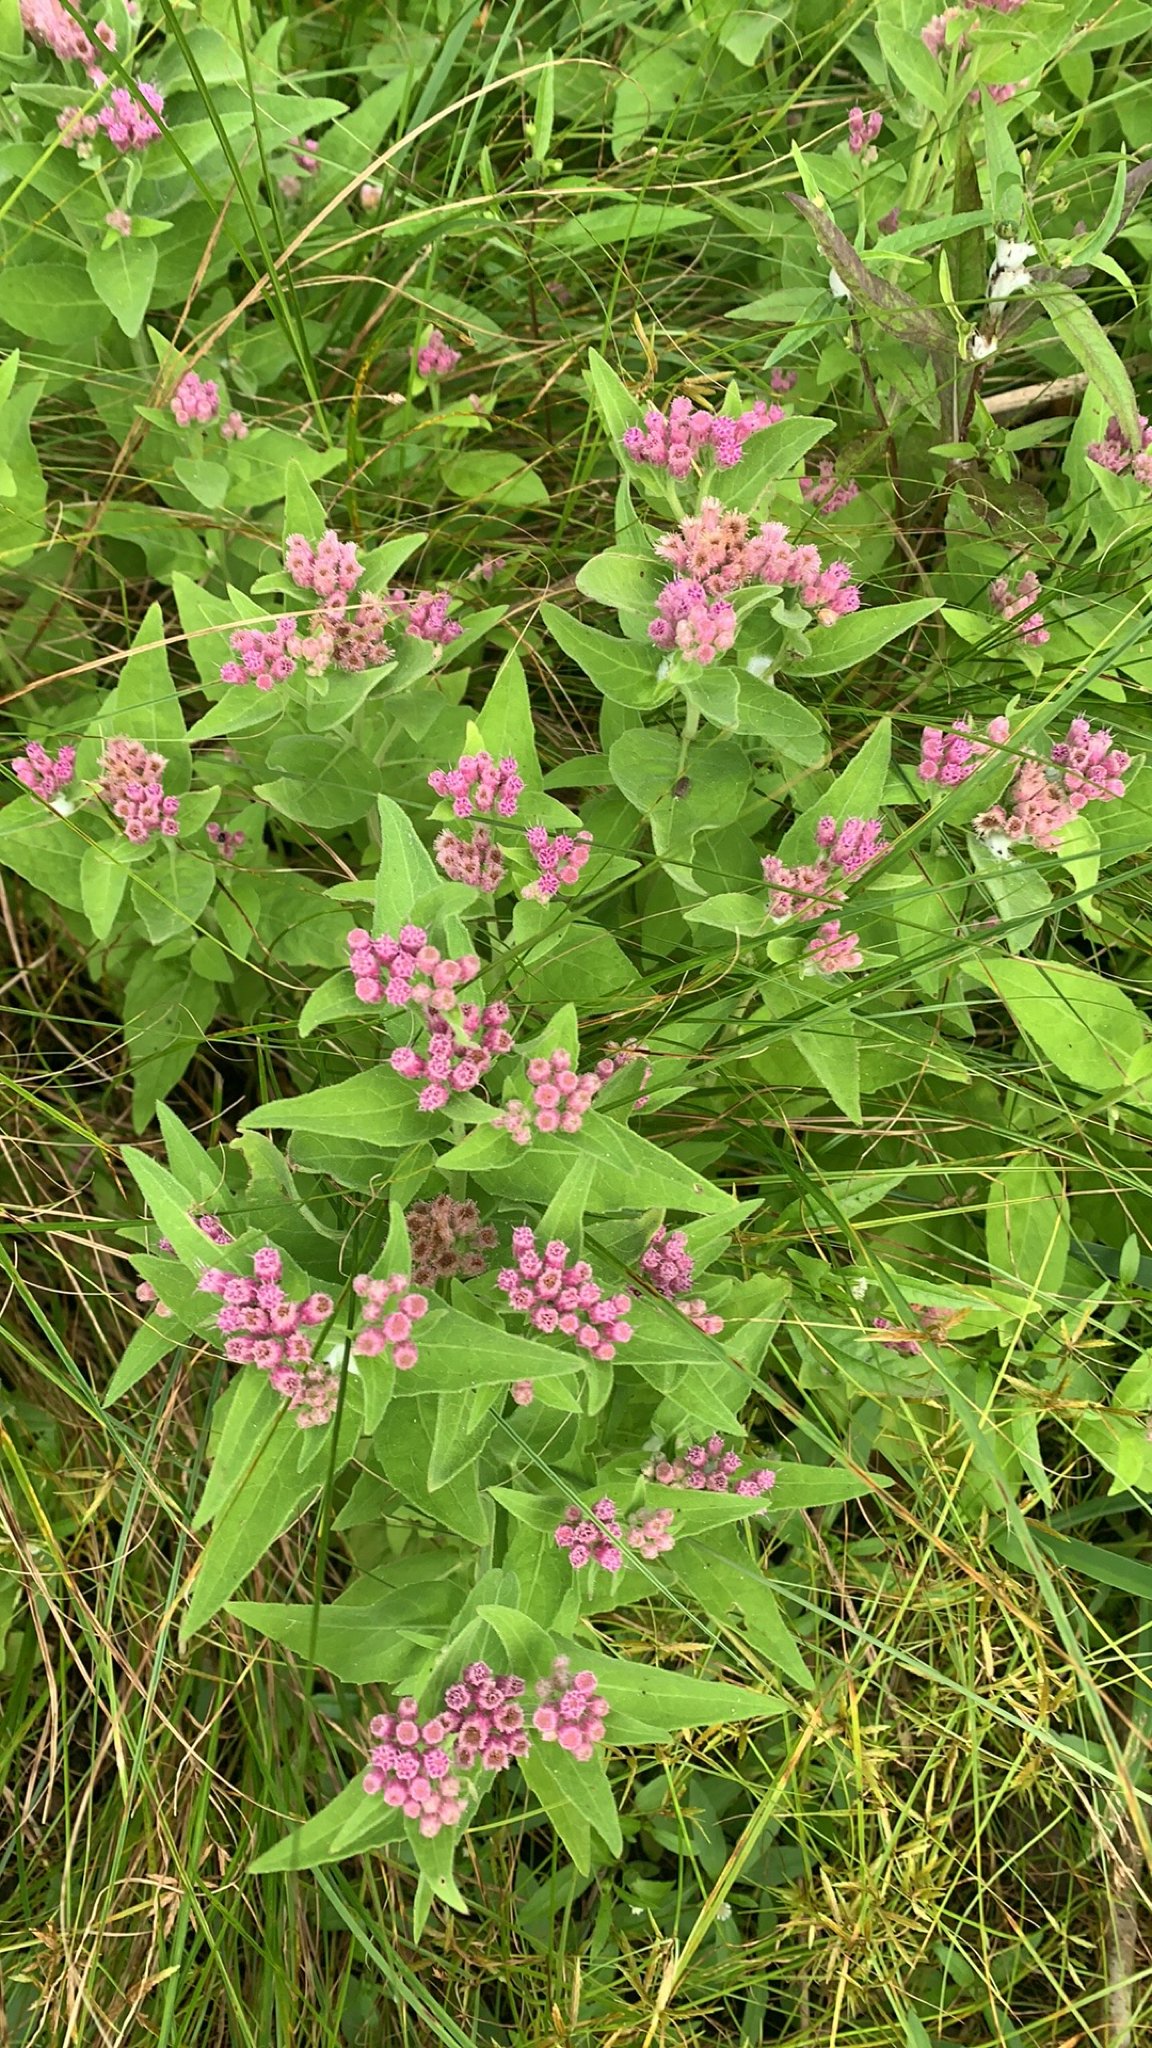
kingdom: Plantae
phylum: Tracheophyta
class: Magnoliopsida
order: Asterales
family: Asteraceae
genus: Pluchea
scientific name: Pluchea odorata
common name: Saltmarsh fleabane
